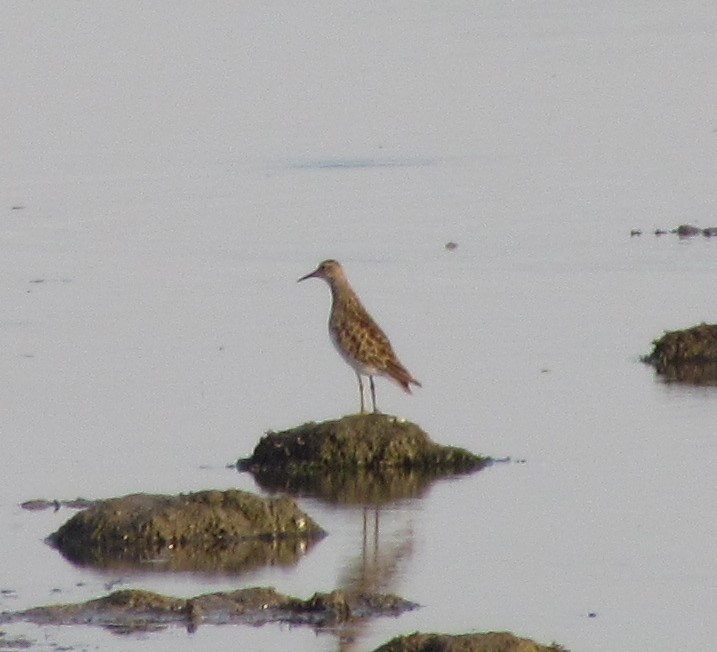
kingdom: Animalia
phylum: Chordata
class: Aves
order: Charadriiformes
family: Scolopacidae
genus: Calidris
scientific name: Calidris melanotos
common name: Pectoral sandpiper
